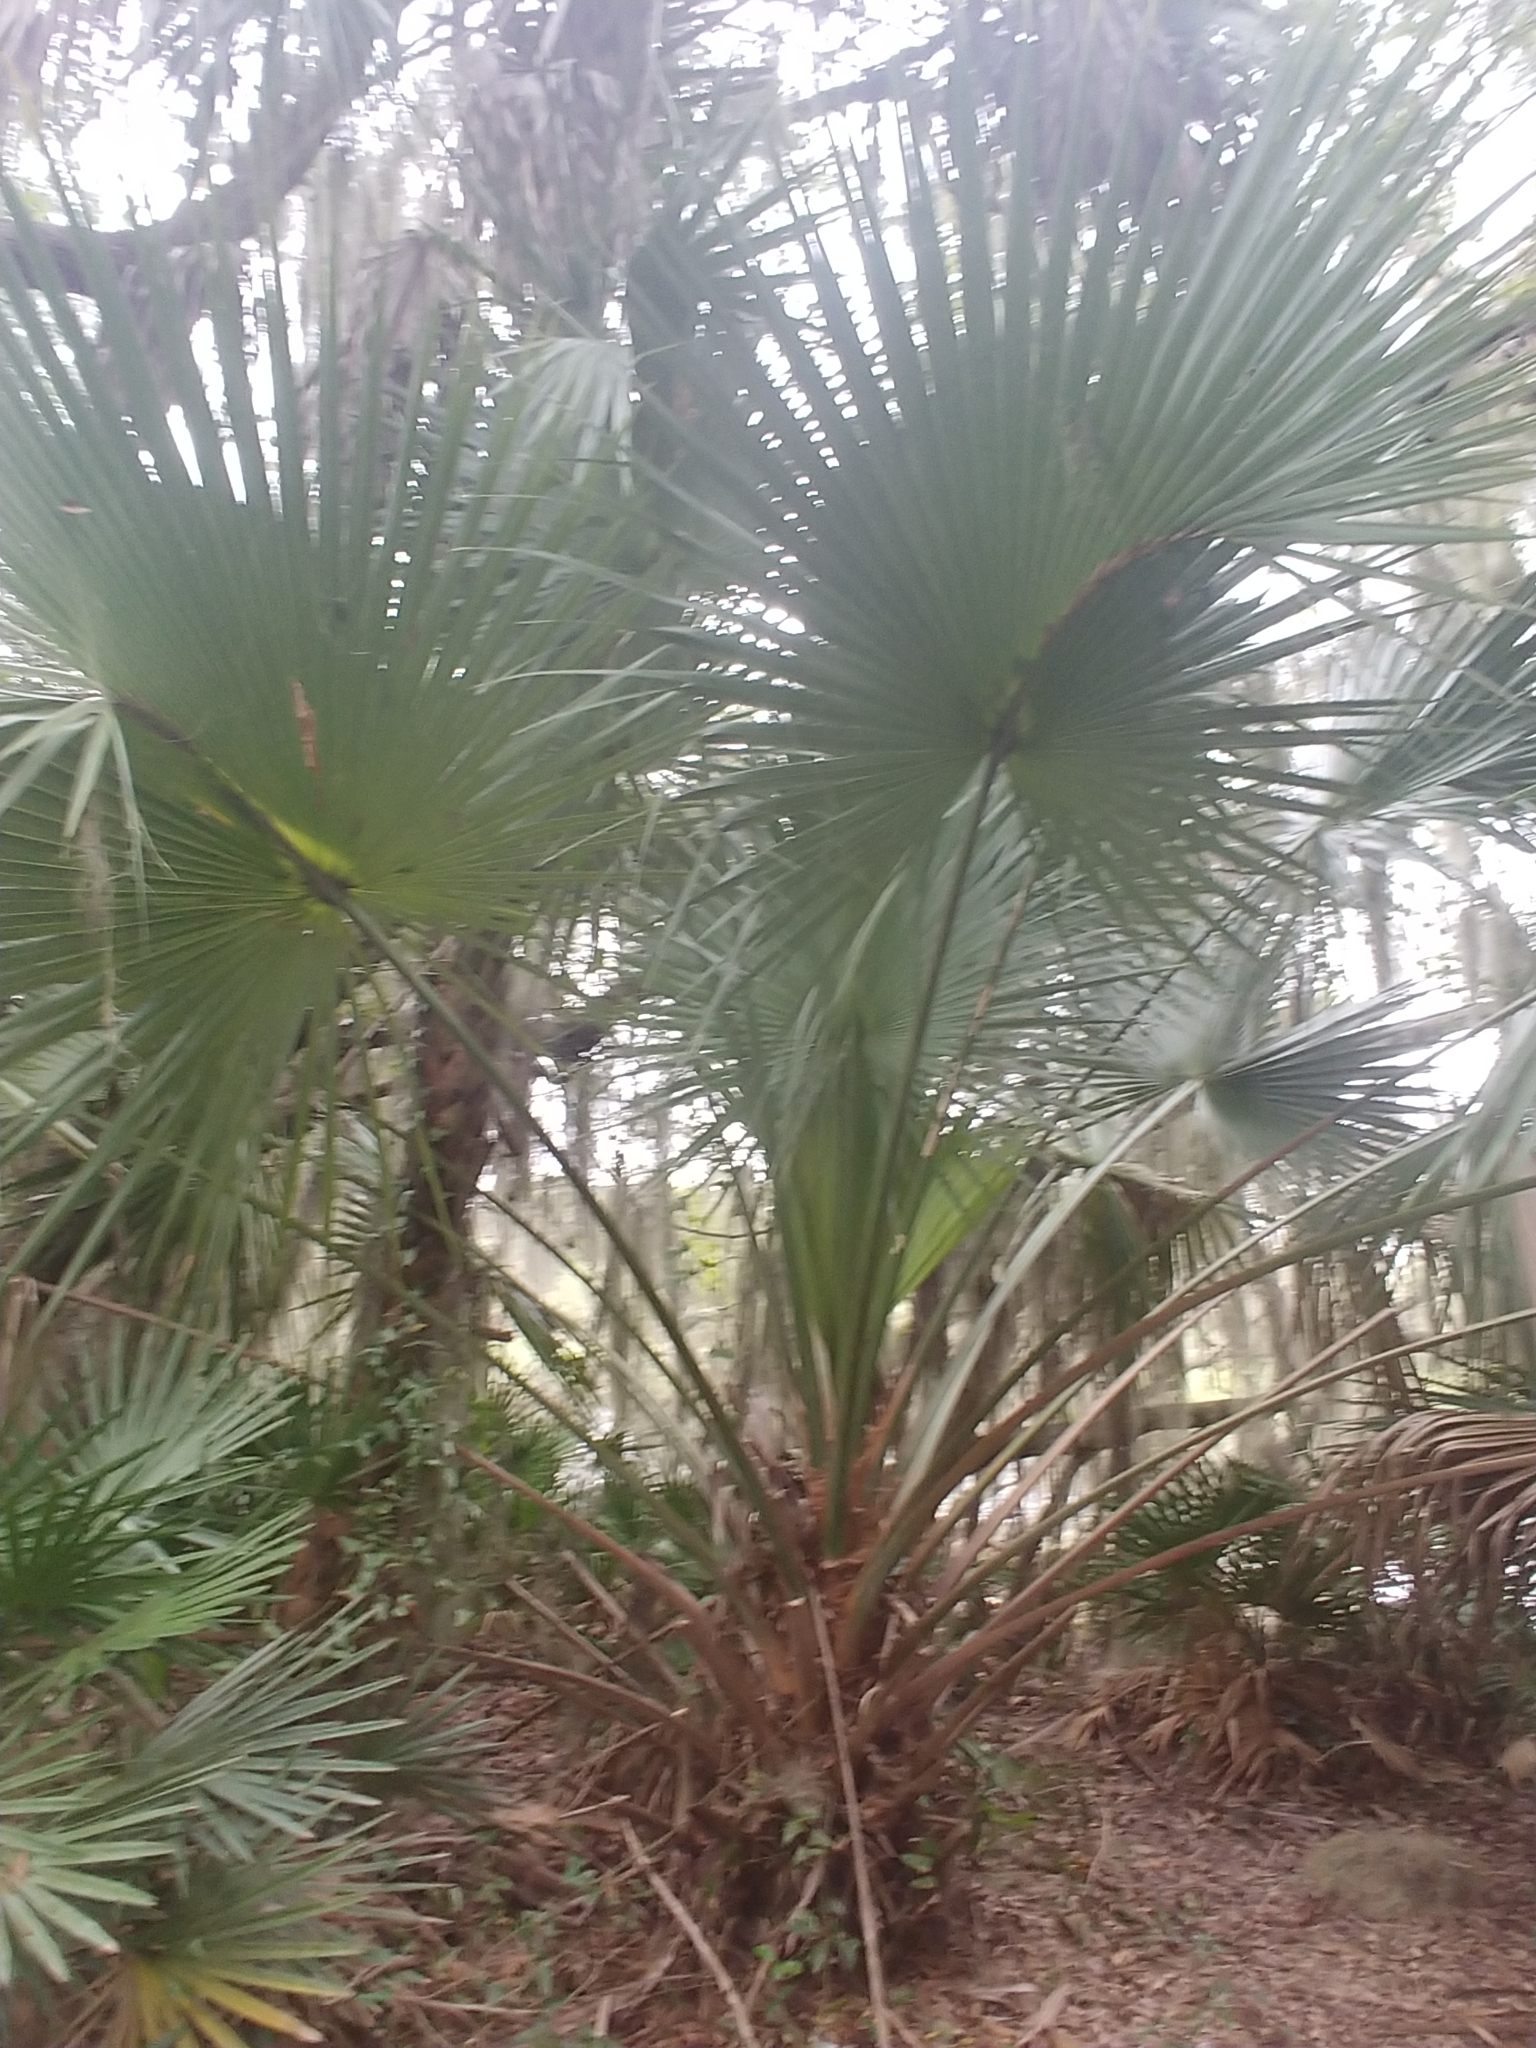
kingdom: Plantae
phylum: Tracheophyta
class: Liliopsida
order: Arecales
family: Arecaceae
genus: Sabal
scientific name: Sabal palmetto
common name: Blue palmetto
